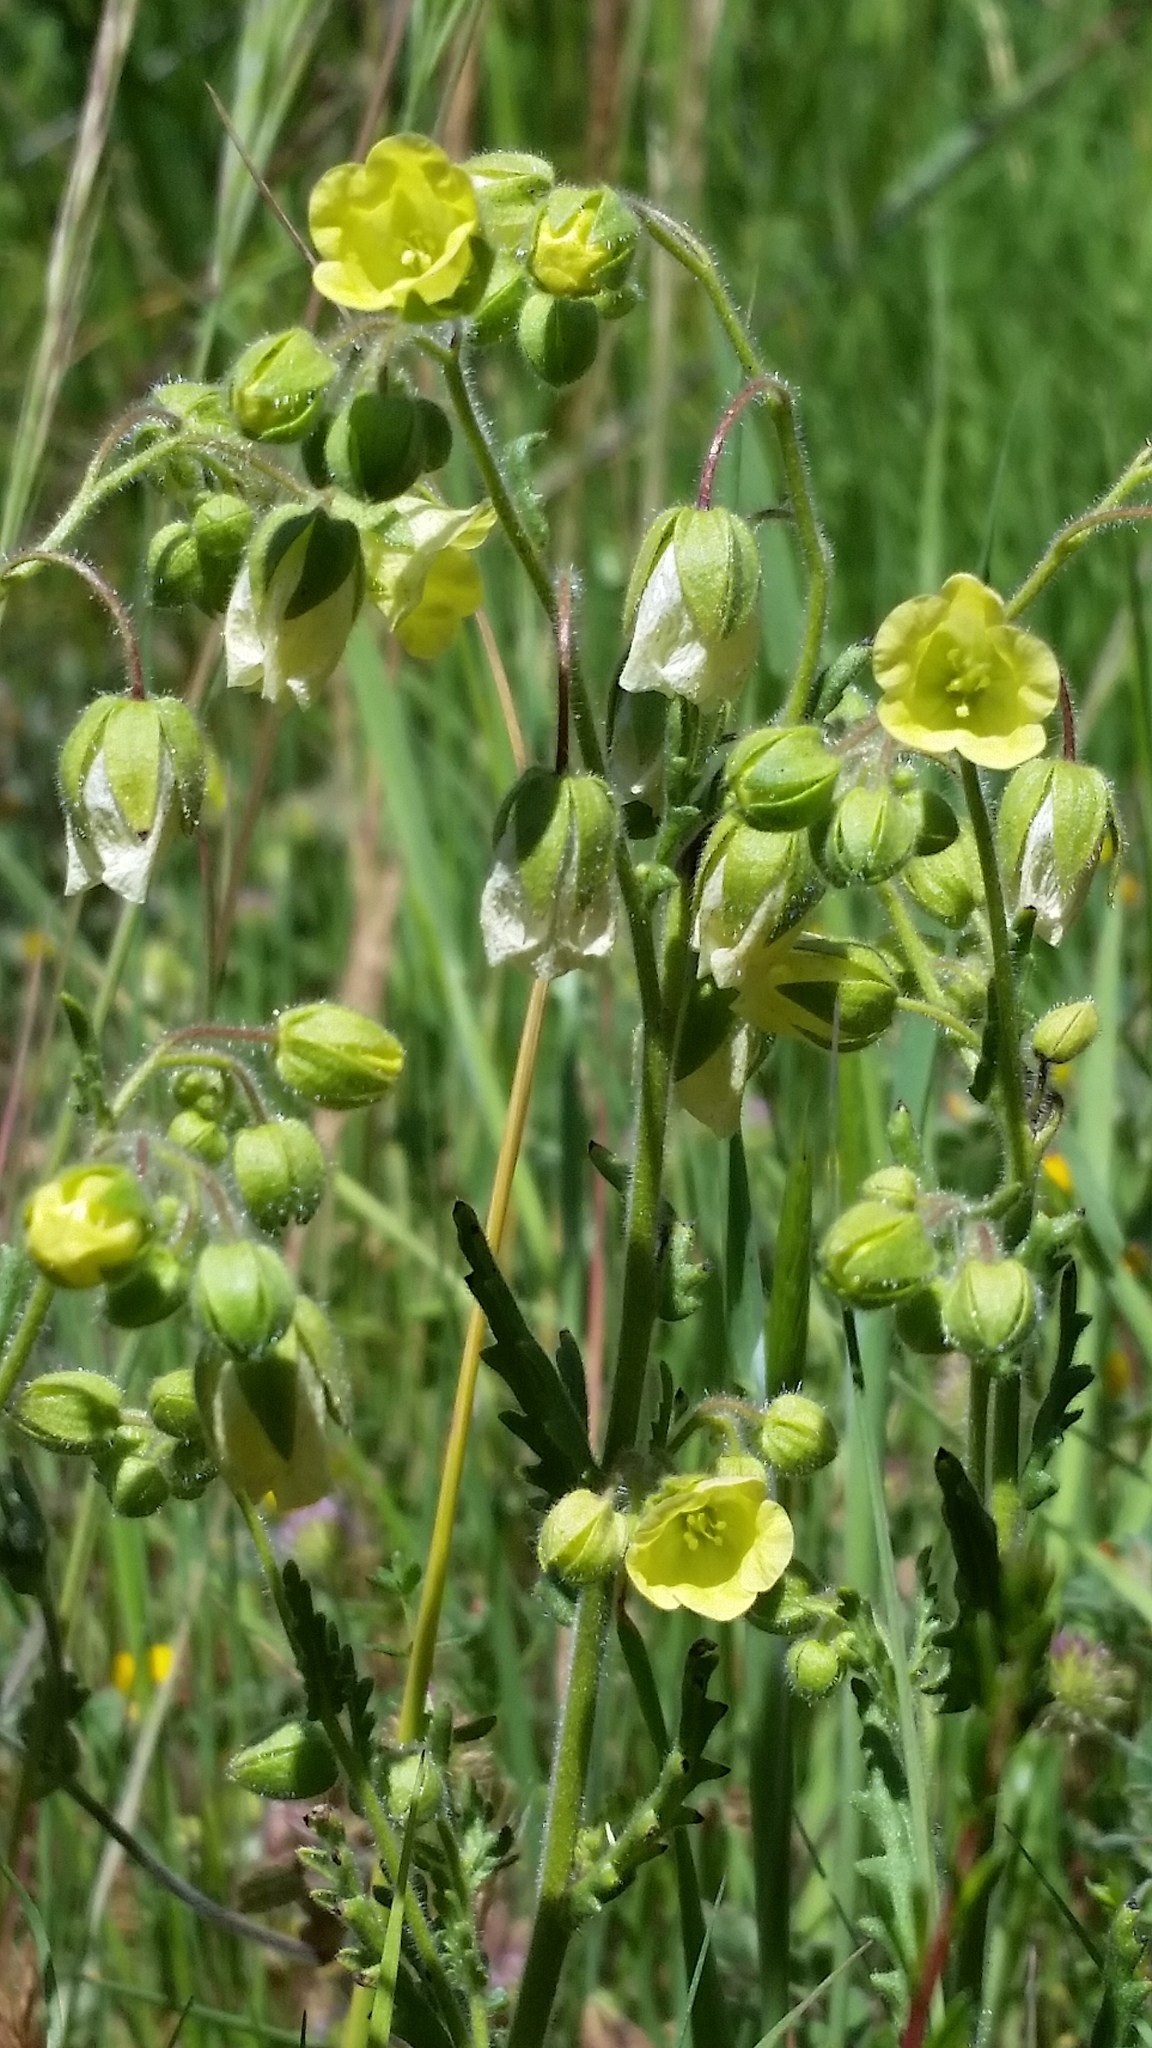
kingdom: Plantae
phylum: Tracheophyta
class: Magnoliopsida
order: Boraginales
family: Hydrophyllaceae
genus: Emmenanthe
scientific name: Emmenanthe penduliflora
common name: Whispering-bells
